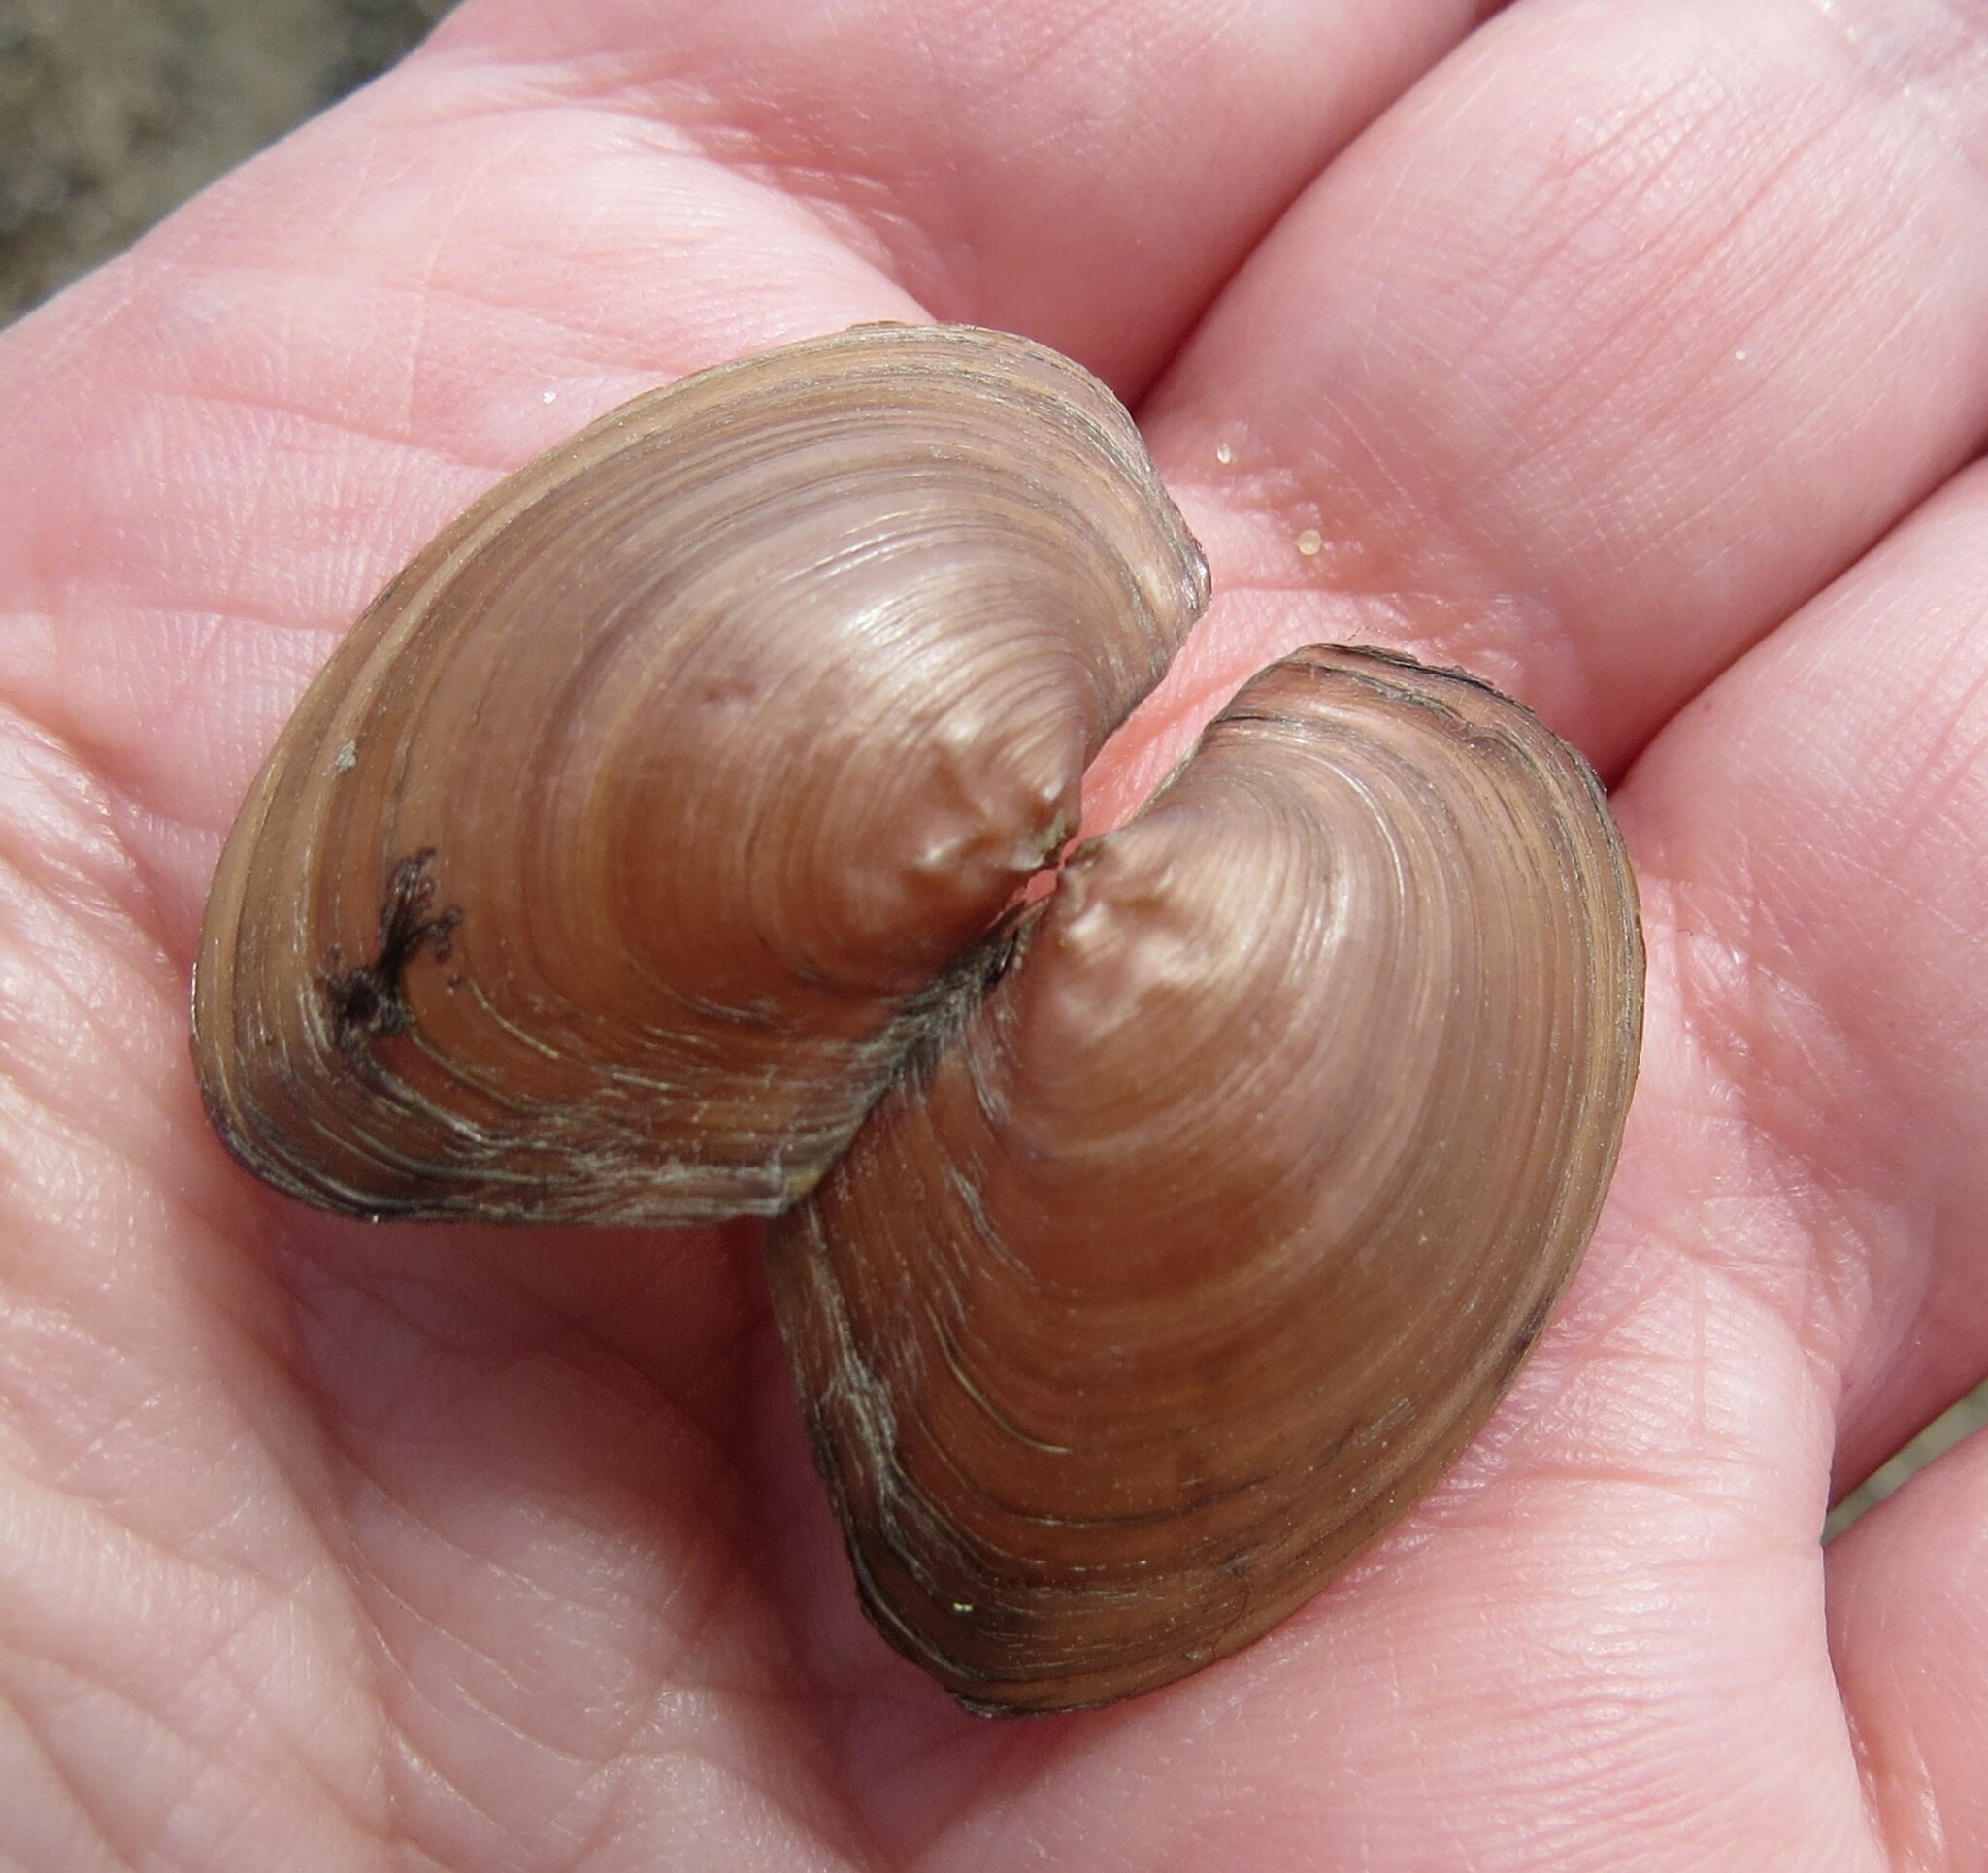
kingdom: Animalia
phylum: Mollusca
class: Bivalvia
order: Unionida
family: Unionidae
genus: Pyganodon
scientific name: Pyganodon grandis
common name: Giant floater
